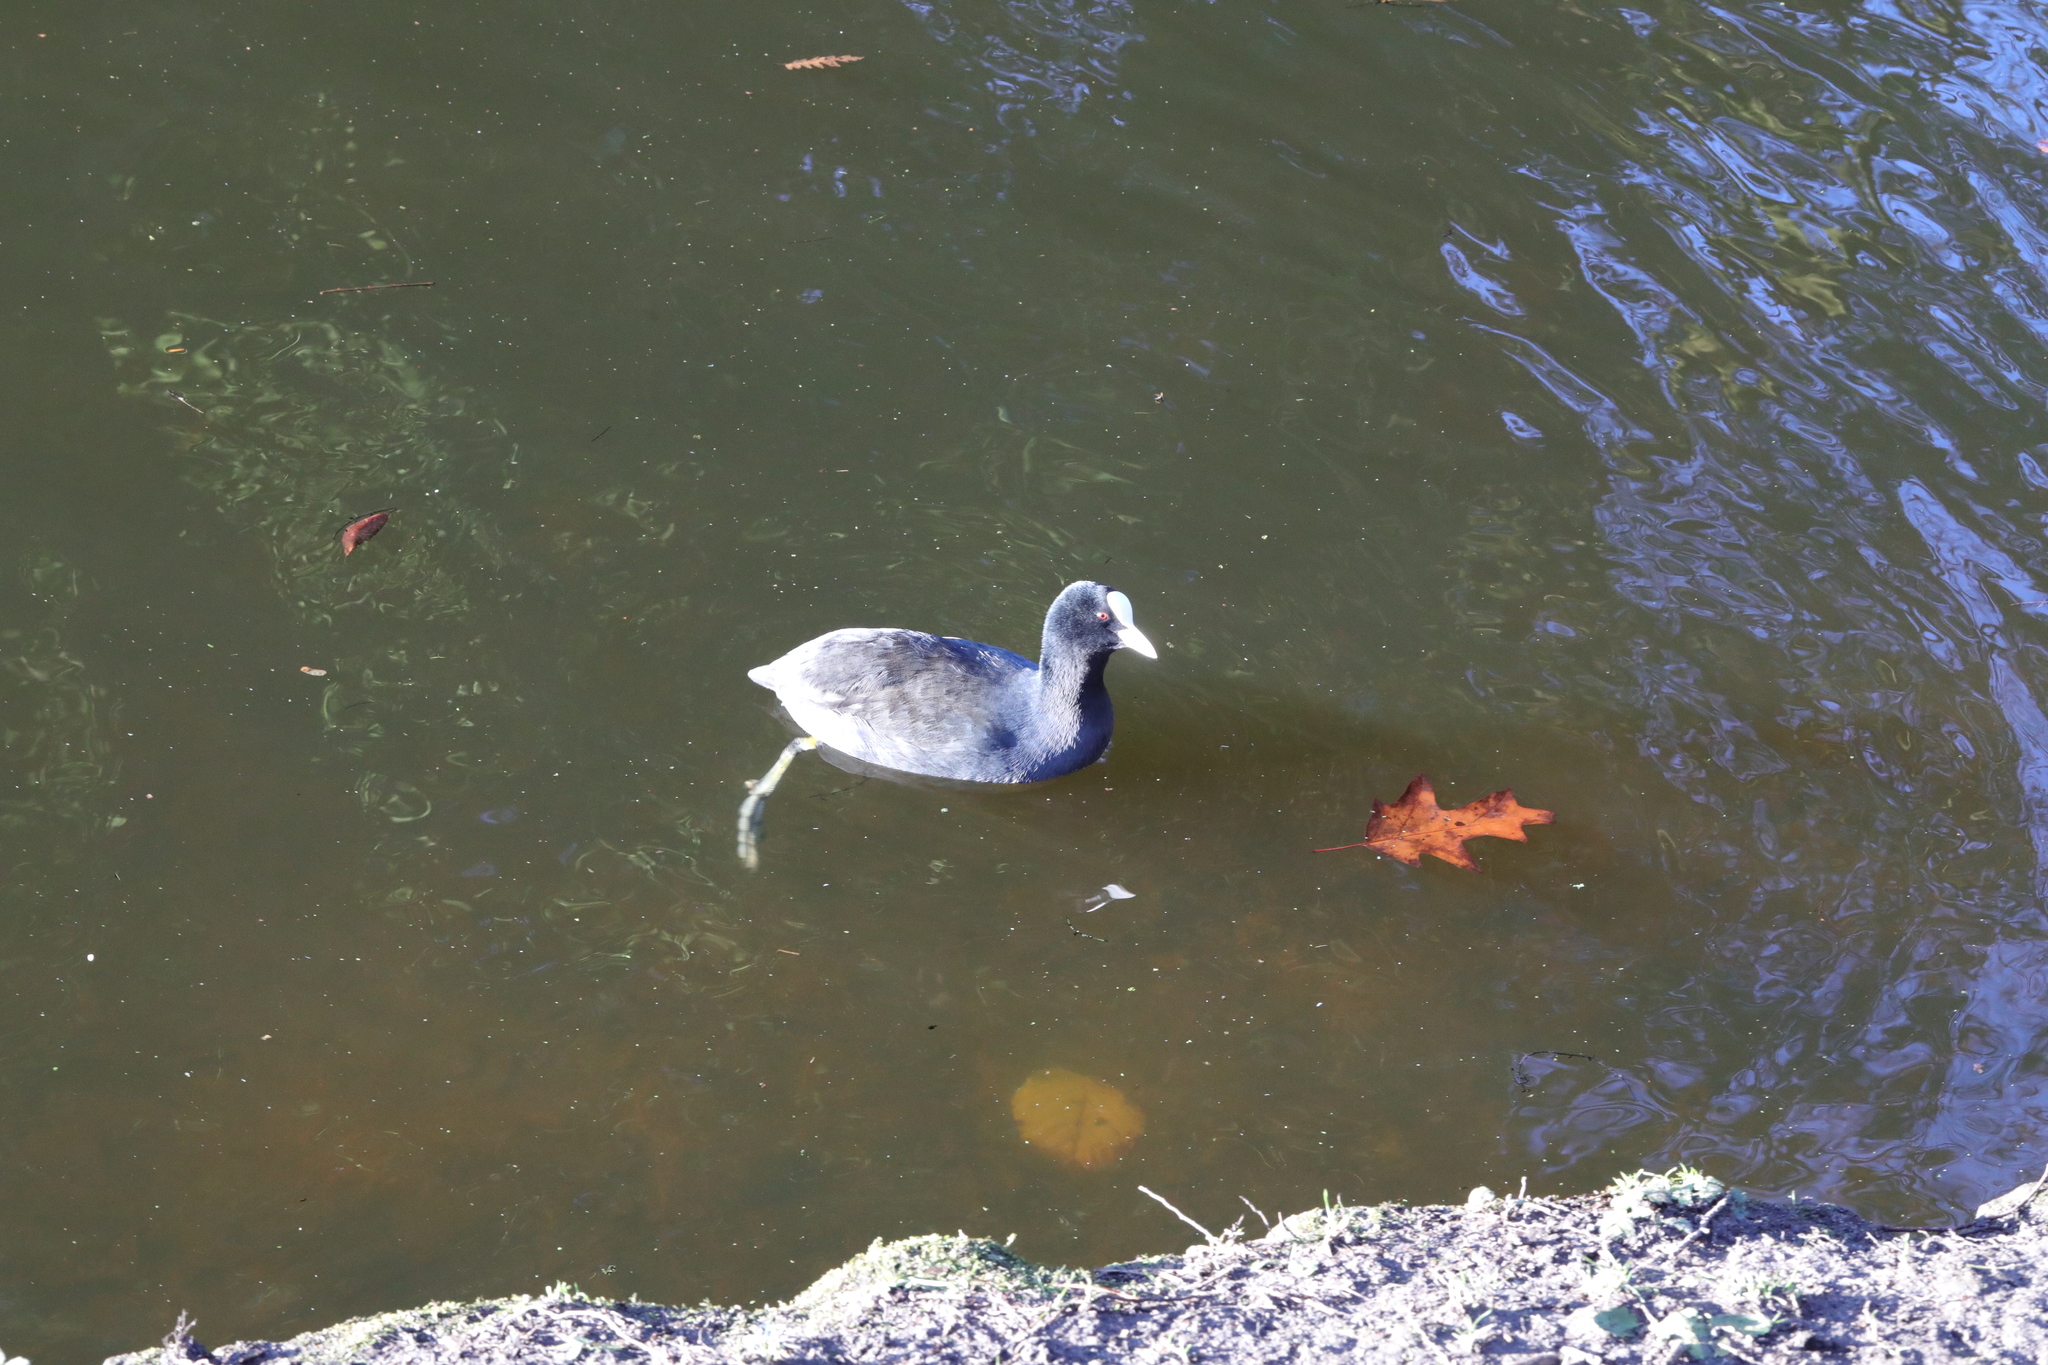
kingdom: Animalia
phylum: Chordata
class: Aves
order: Gruiformes
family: Rallidae
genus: Fulica
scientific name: Fulica atra
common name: Eurasian coot
